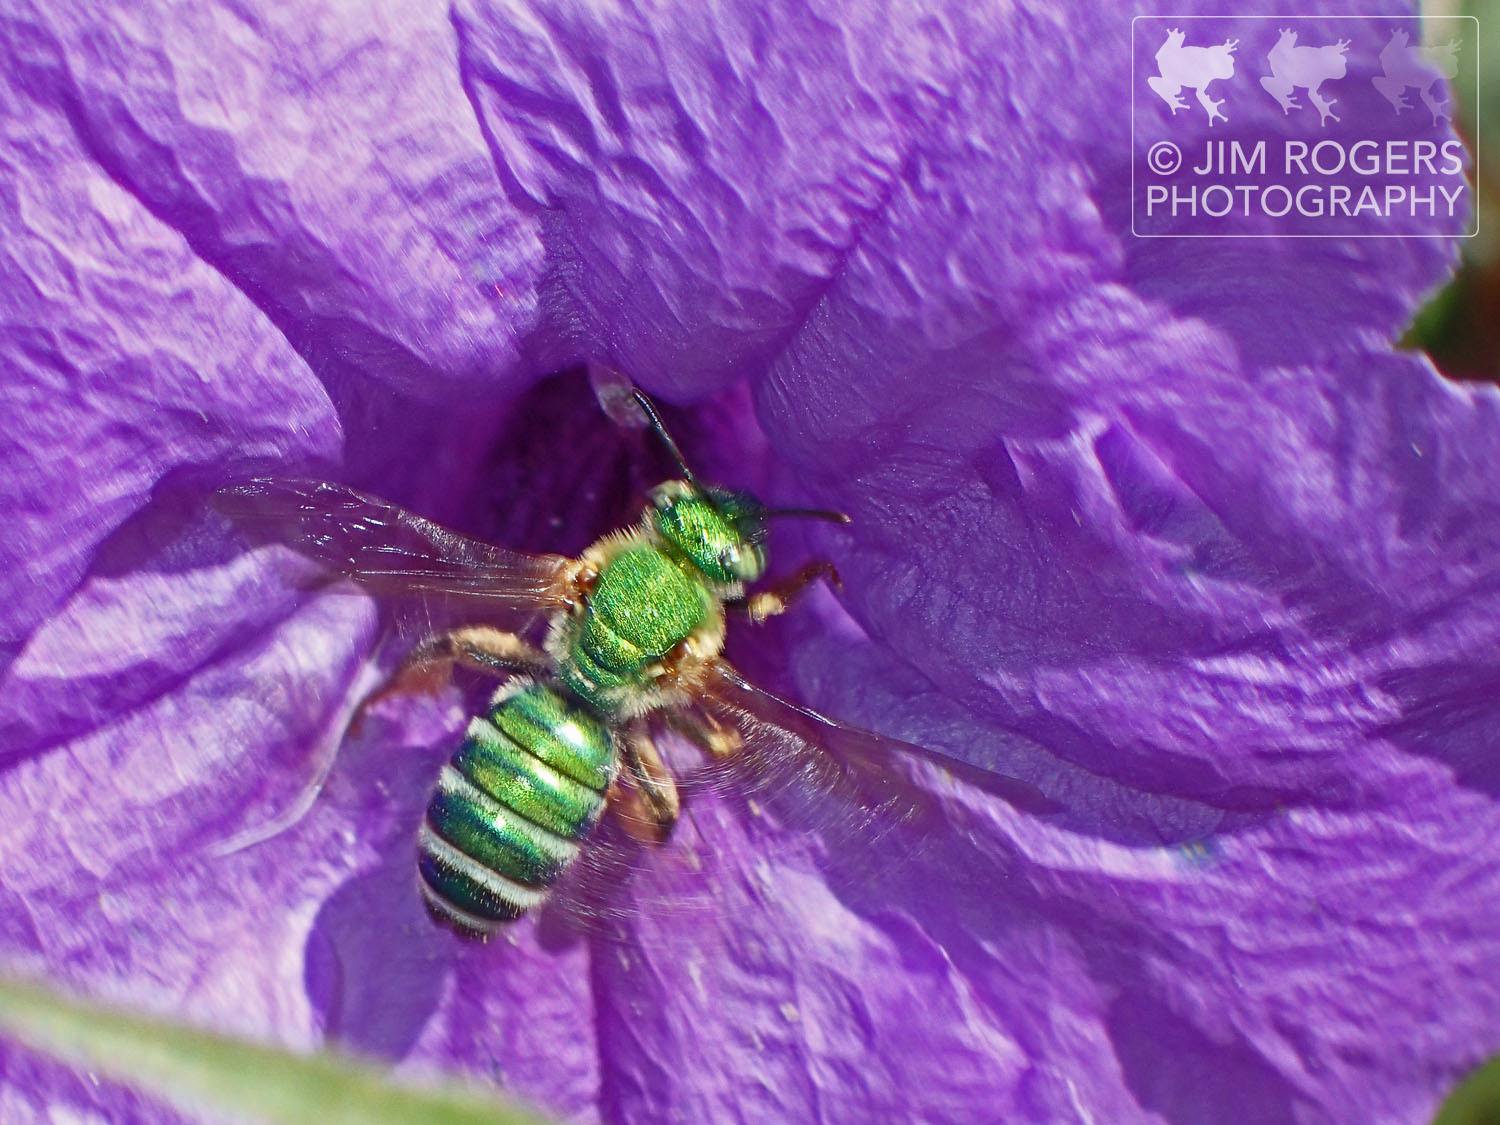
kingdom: Animalia
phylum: Arthropoda
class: Insecta
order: Hymenoptera
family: Halictidae
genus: Agapostemon
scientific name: Agapostemon splendens
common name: Brown-winged striped sweat bee
